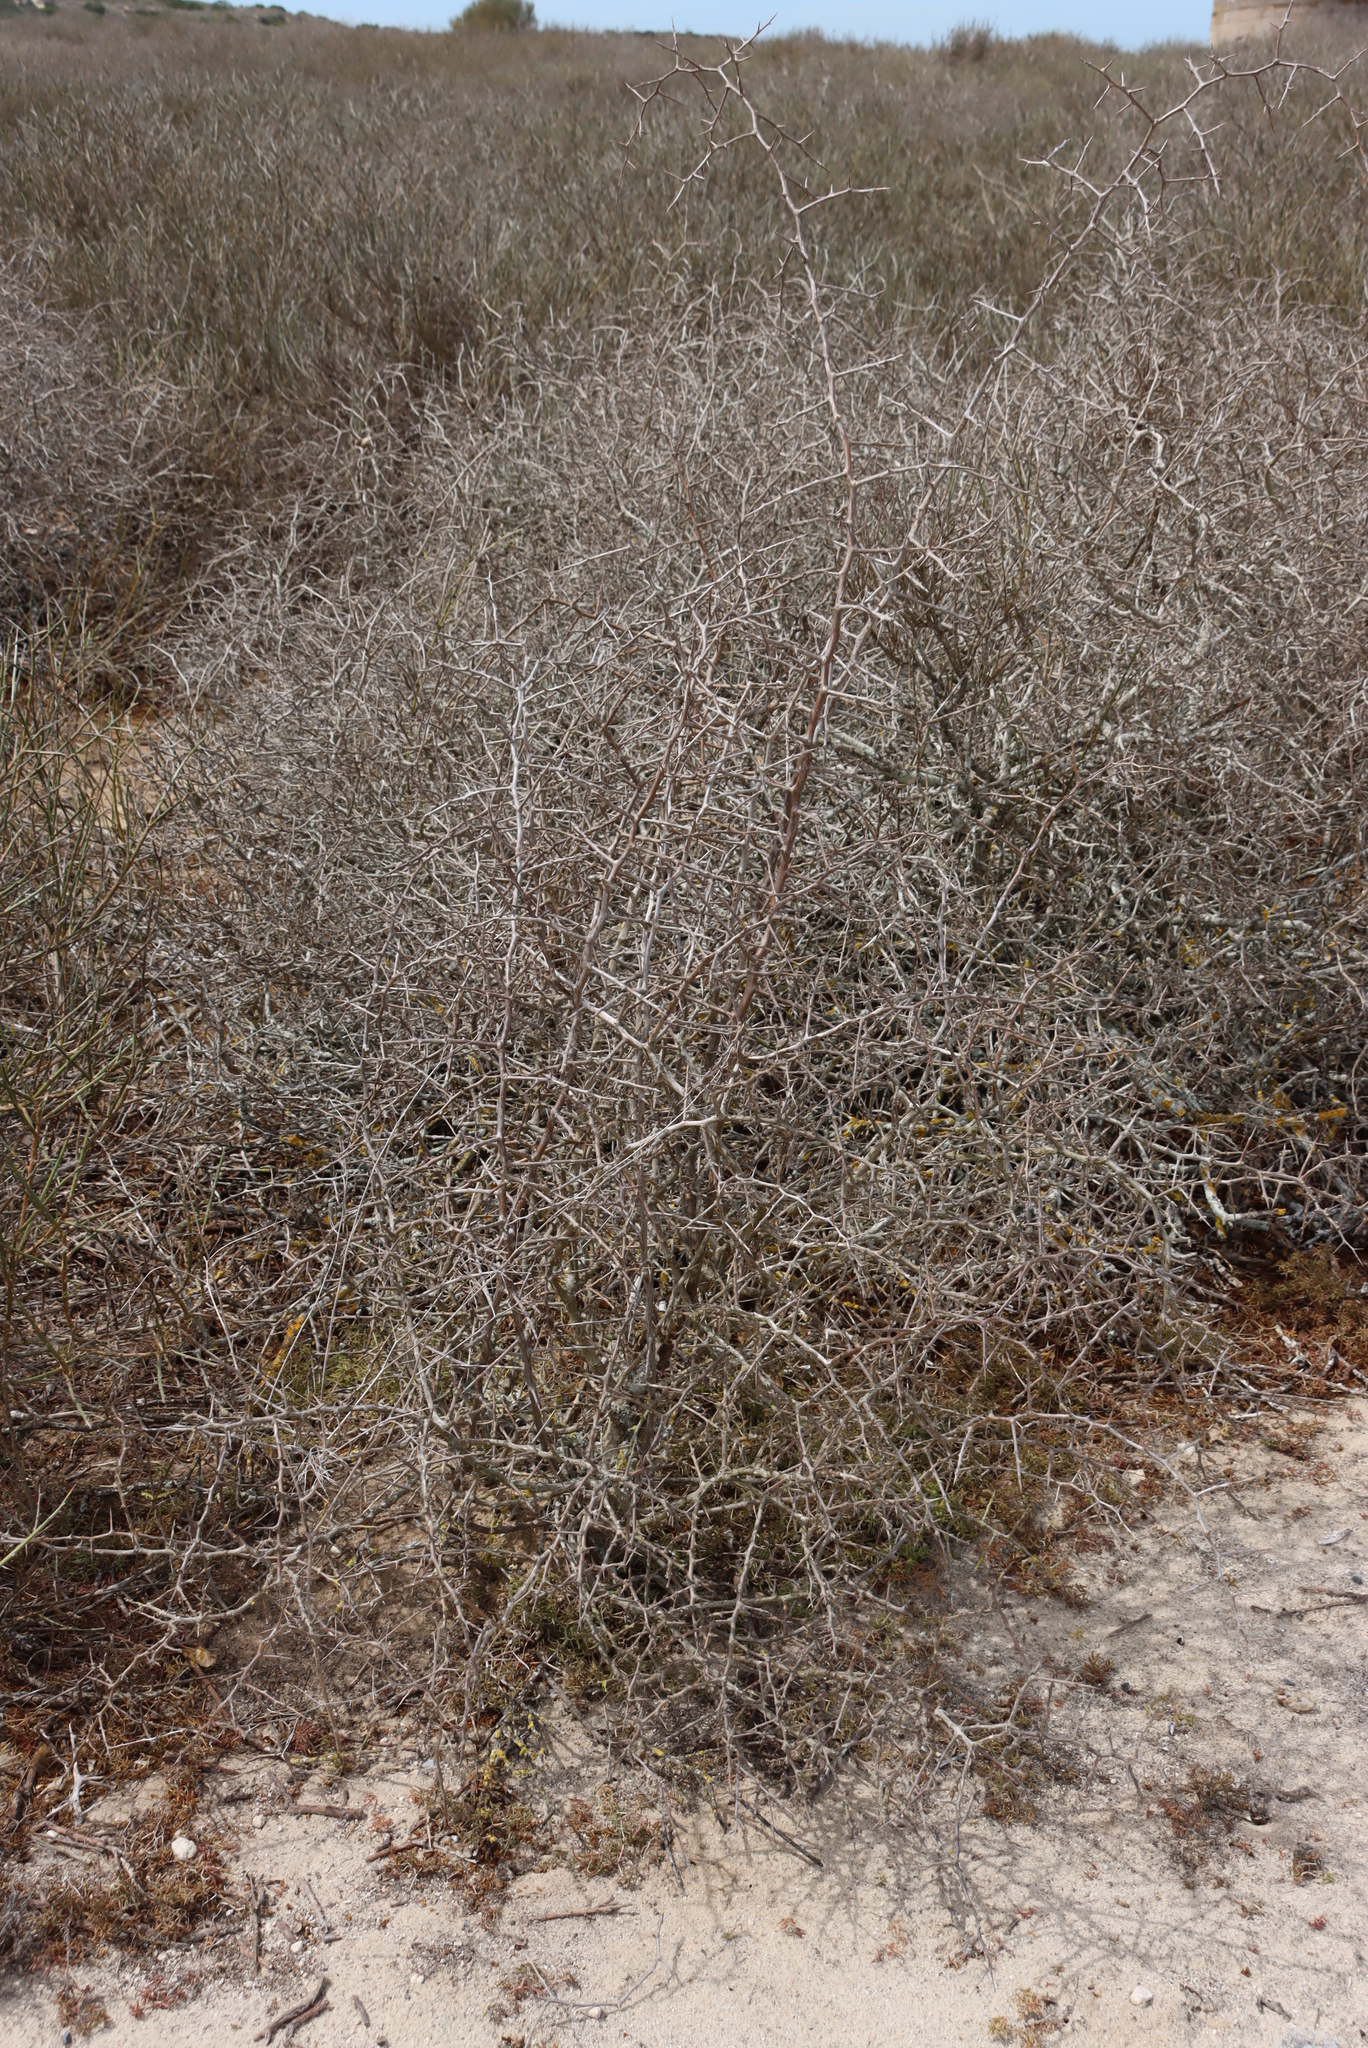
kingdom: Plantae
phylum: Tracheophyta
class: Magnoliopsida
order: Solanales
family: Solanaceae
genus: Lycium
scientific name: Lycium ferocissimum
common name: African boxthorn
